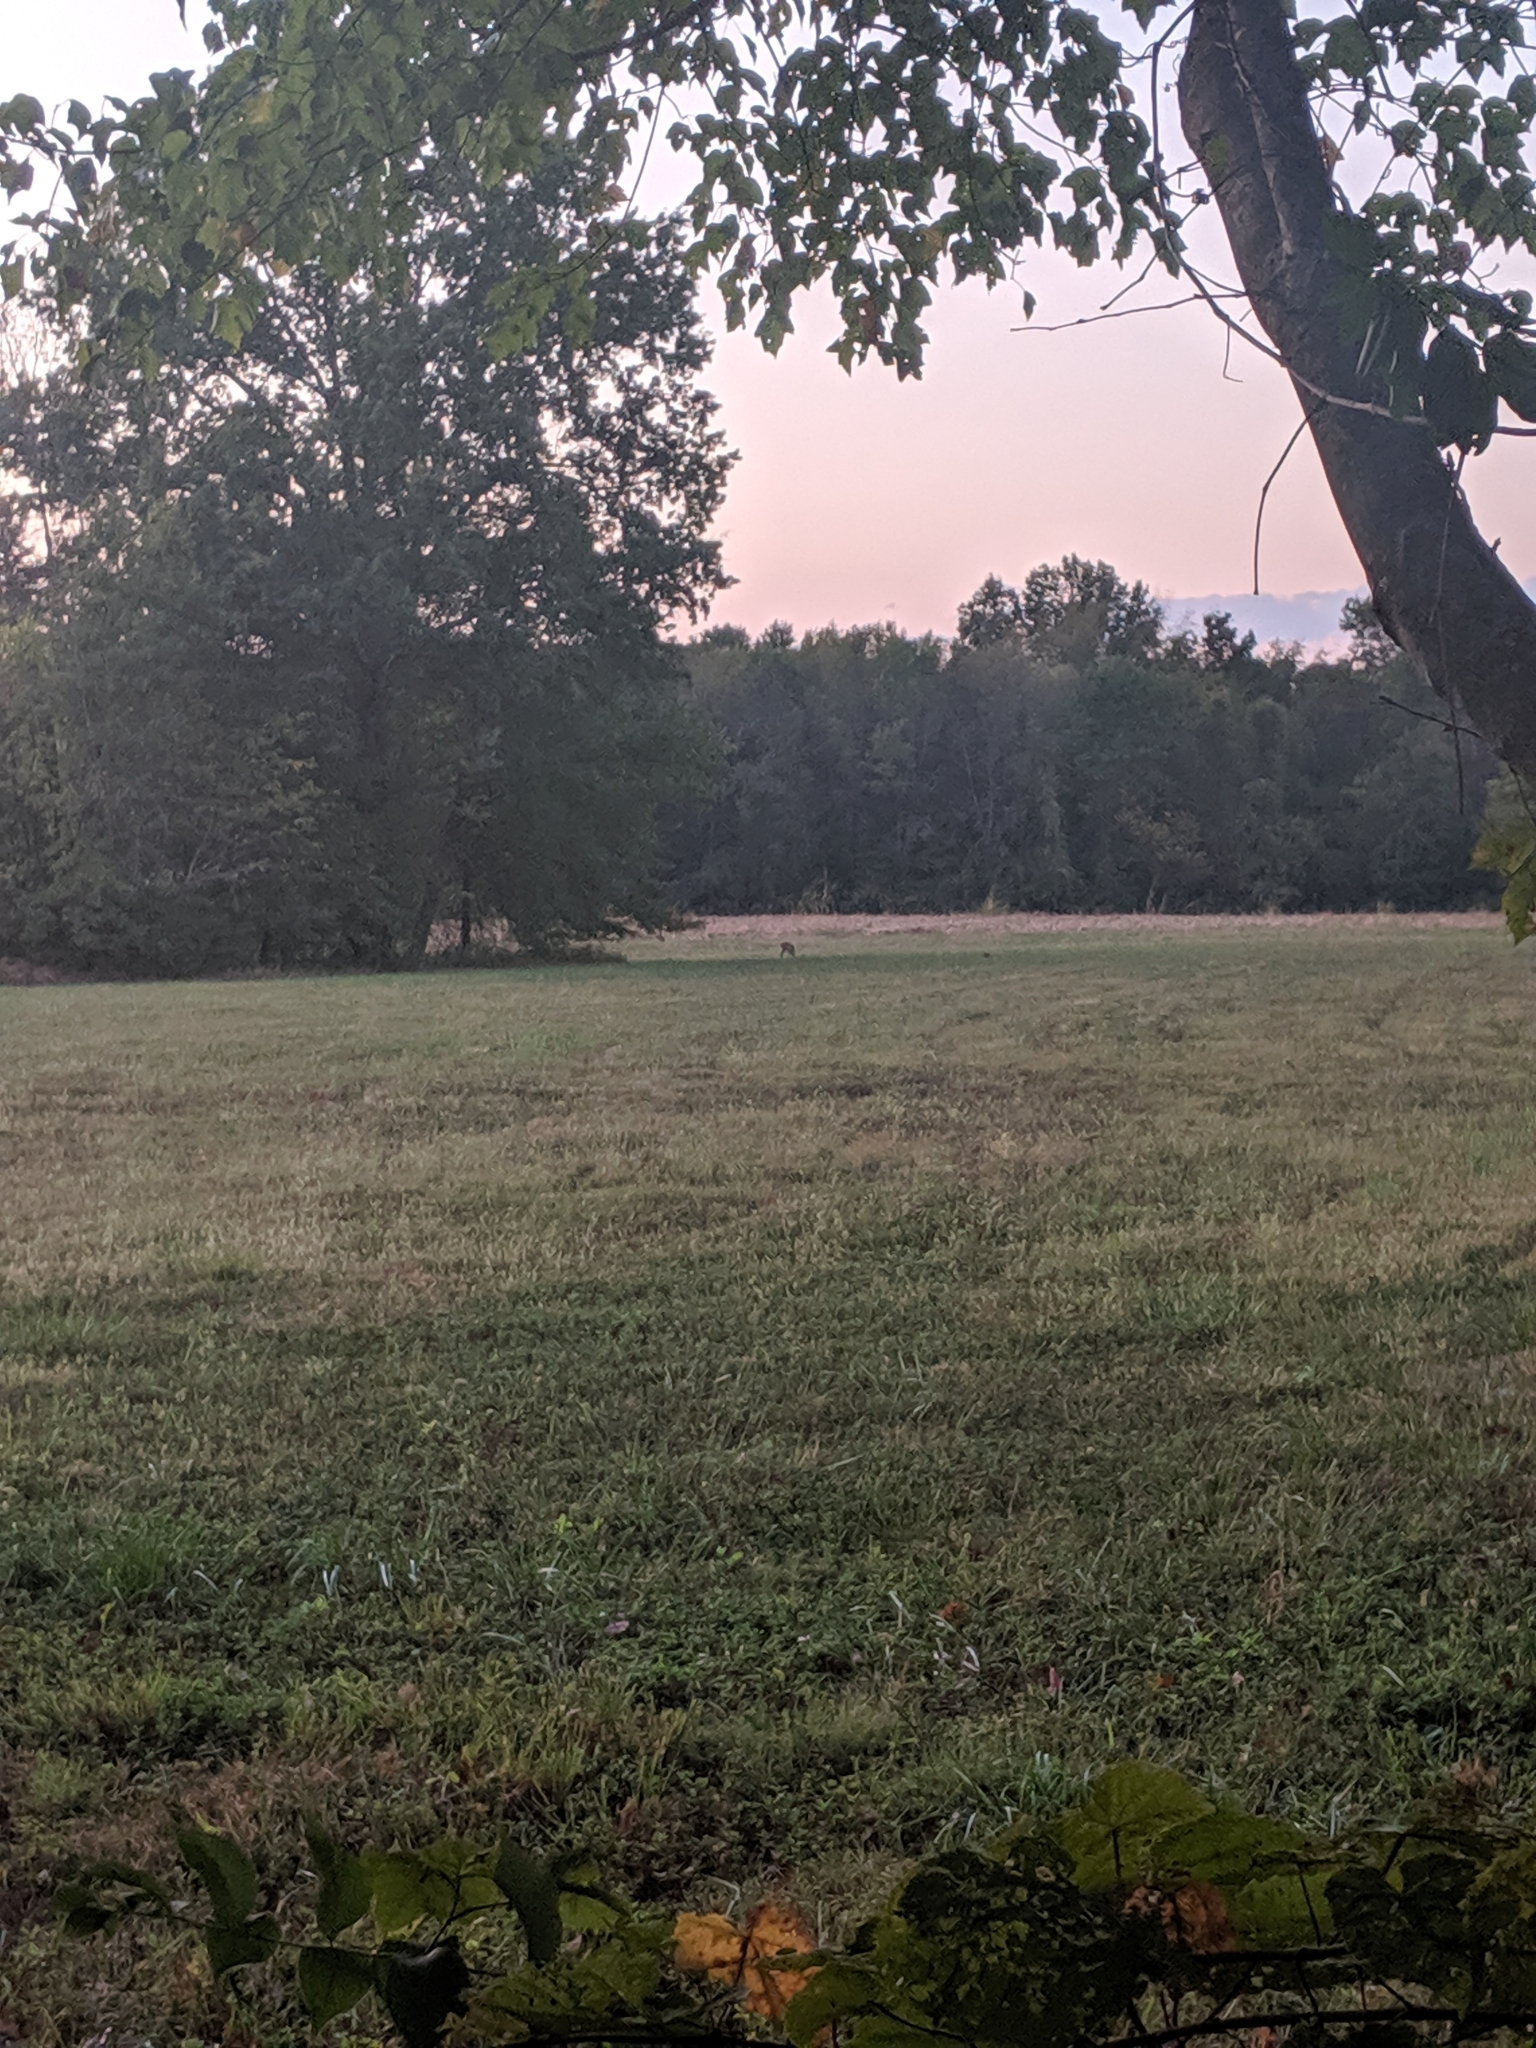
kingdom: Animalia
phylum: Chordata
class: Mammalia
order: Artiodactyla
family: Cervidae
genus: Odocoileus
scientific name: Odocoileus virginianus
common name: White-tailed deer
